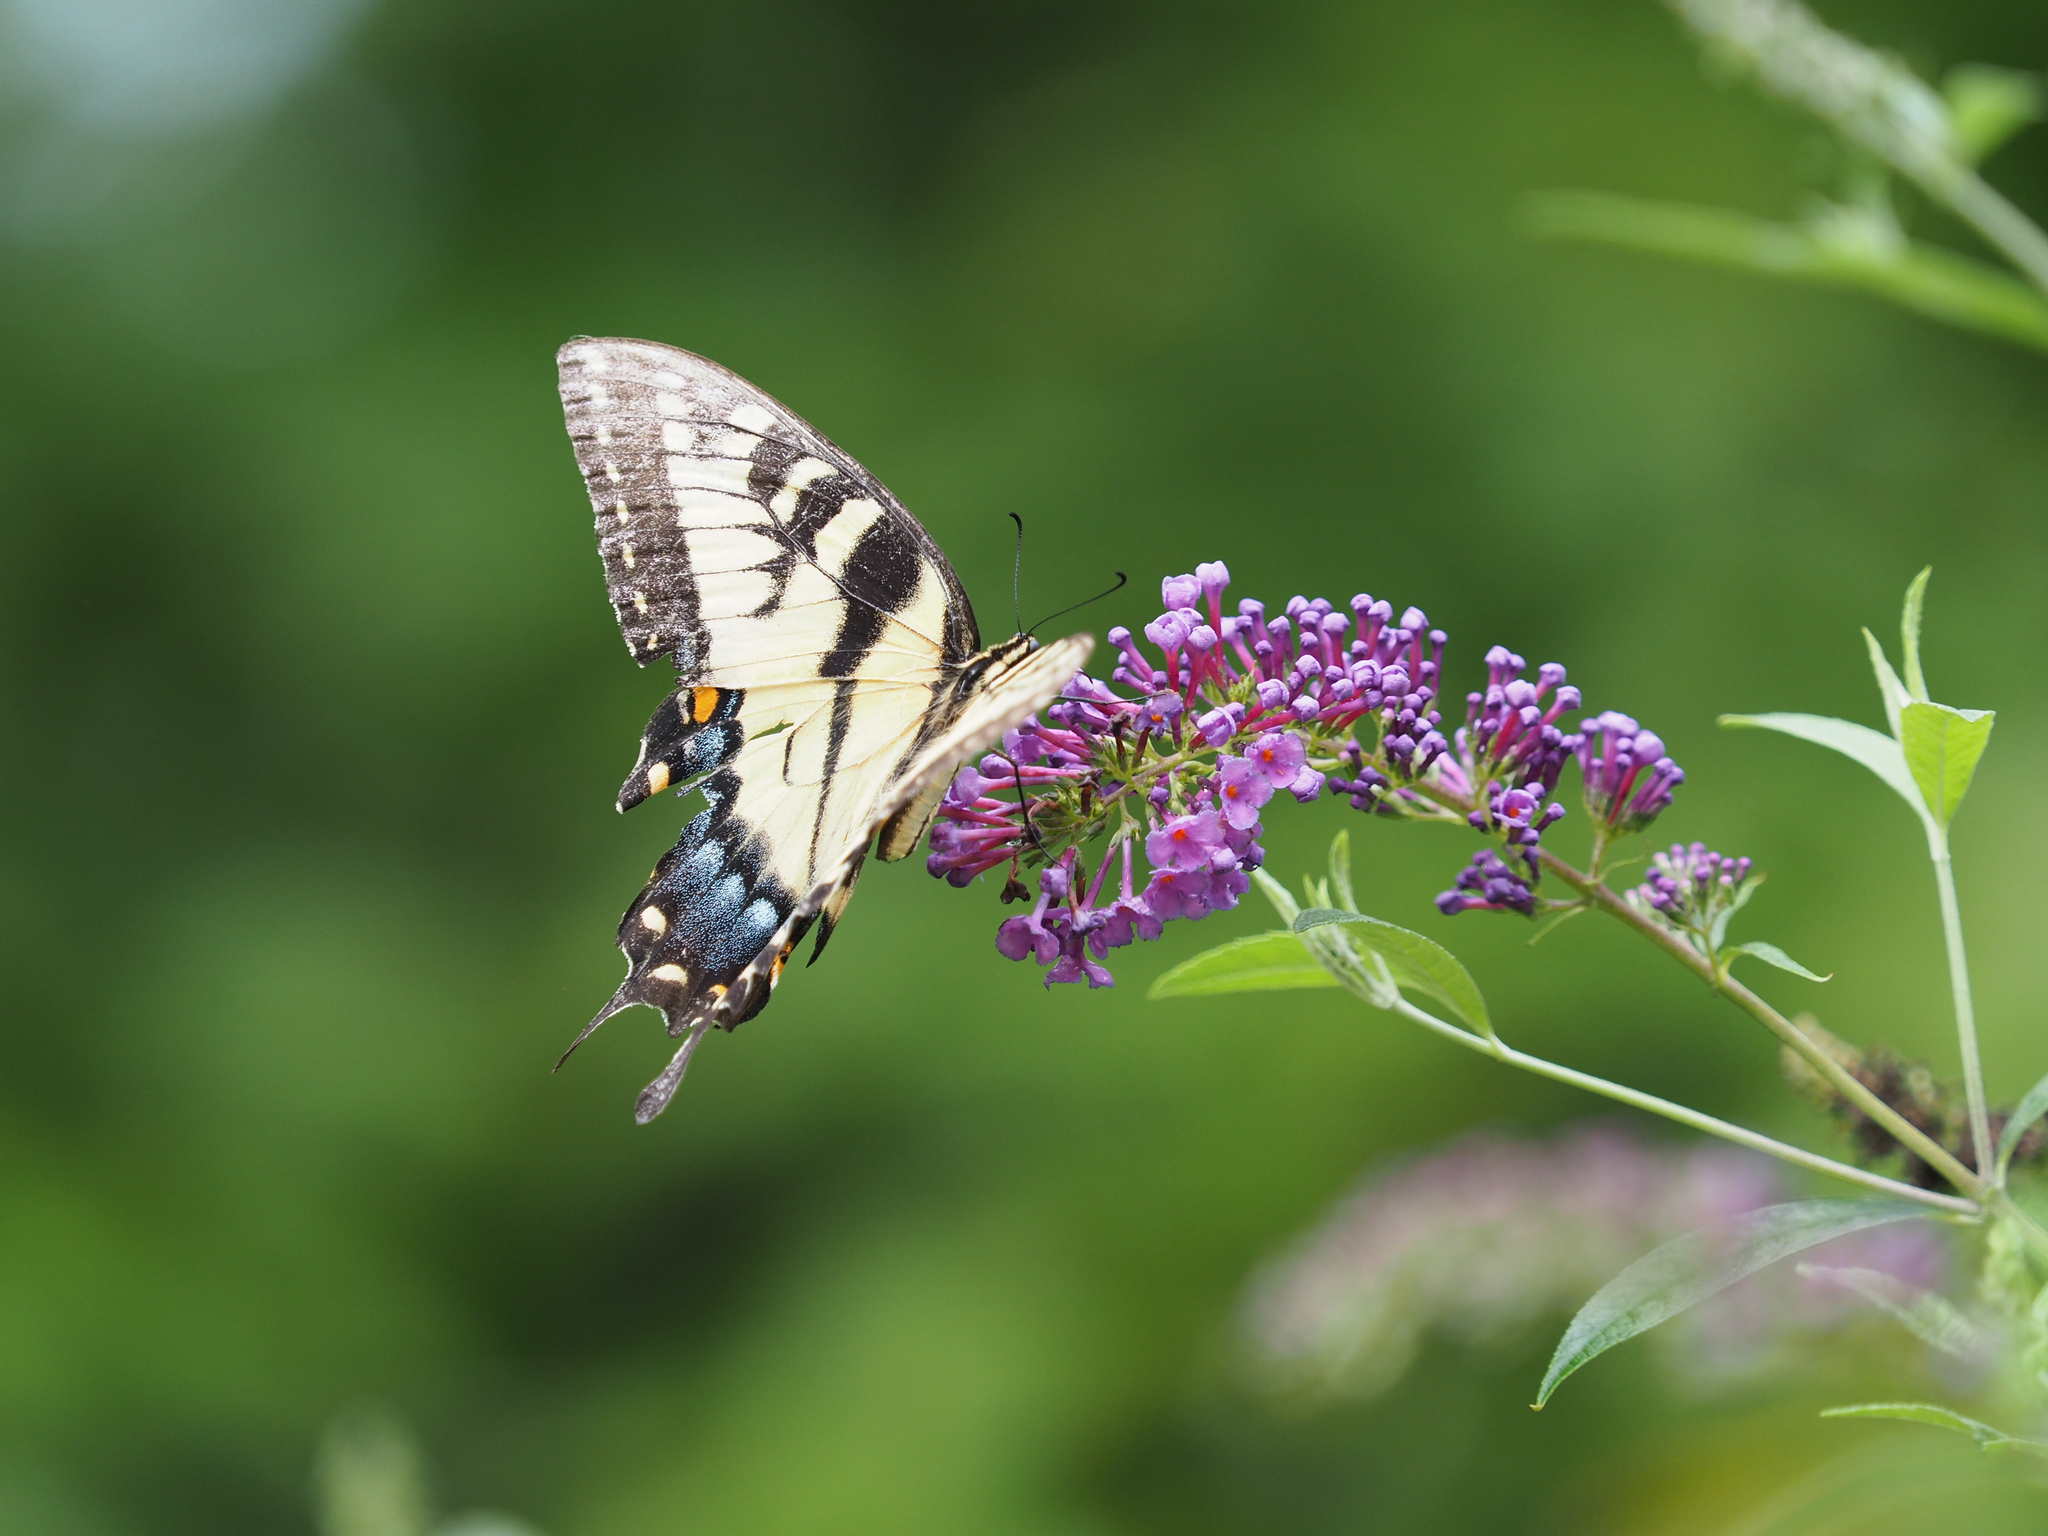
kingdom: Animalia
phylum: Arthropoda
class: Insecta
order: Lepidoptera
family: Papilionidae
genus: Papilio
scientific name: Papilio glaucus
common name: Tiger swallowtail
